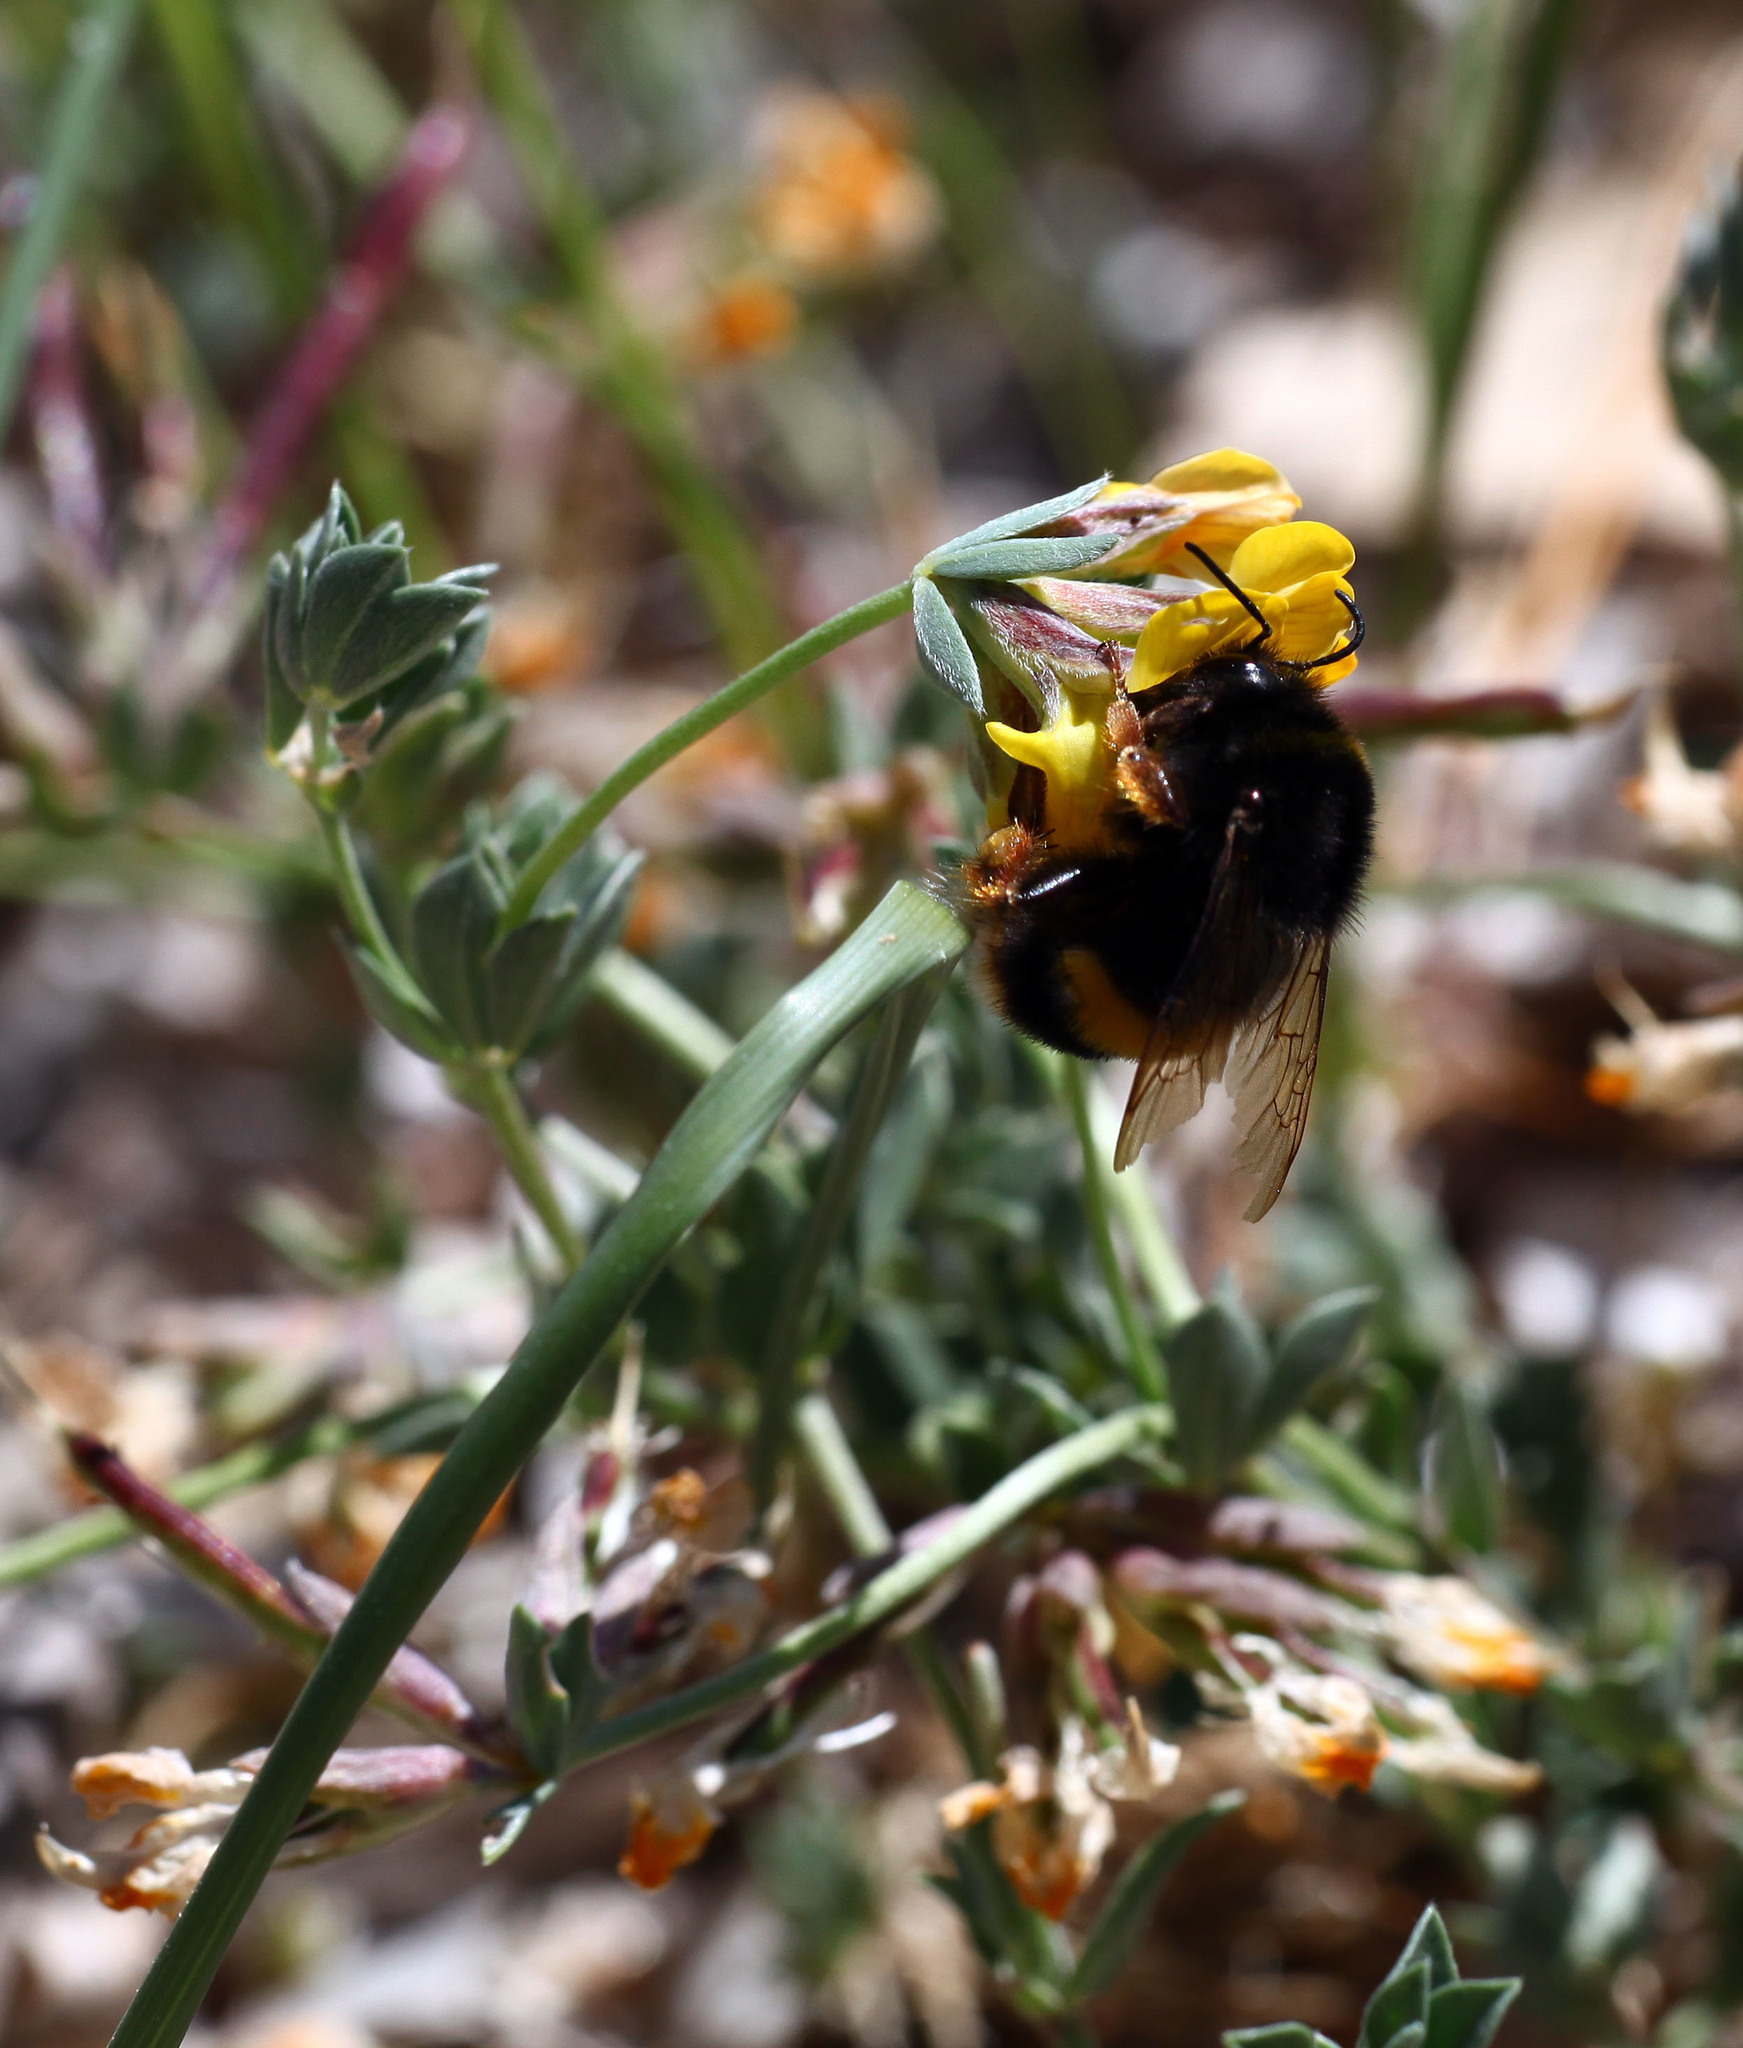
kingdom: Animalia
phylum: Arthropoda
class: Insecta
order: Hymenoptera
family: Apidae
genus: Bombus
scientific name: Bombus terrestris
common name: Buff-tailed bumblebee
